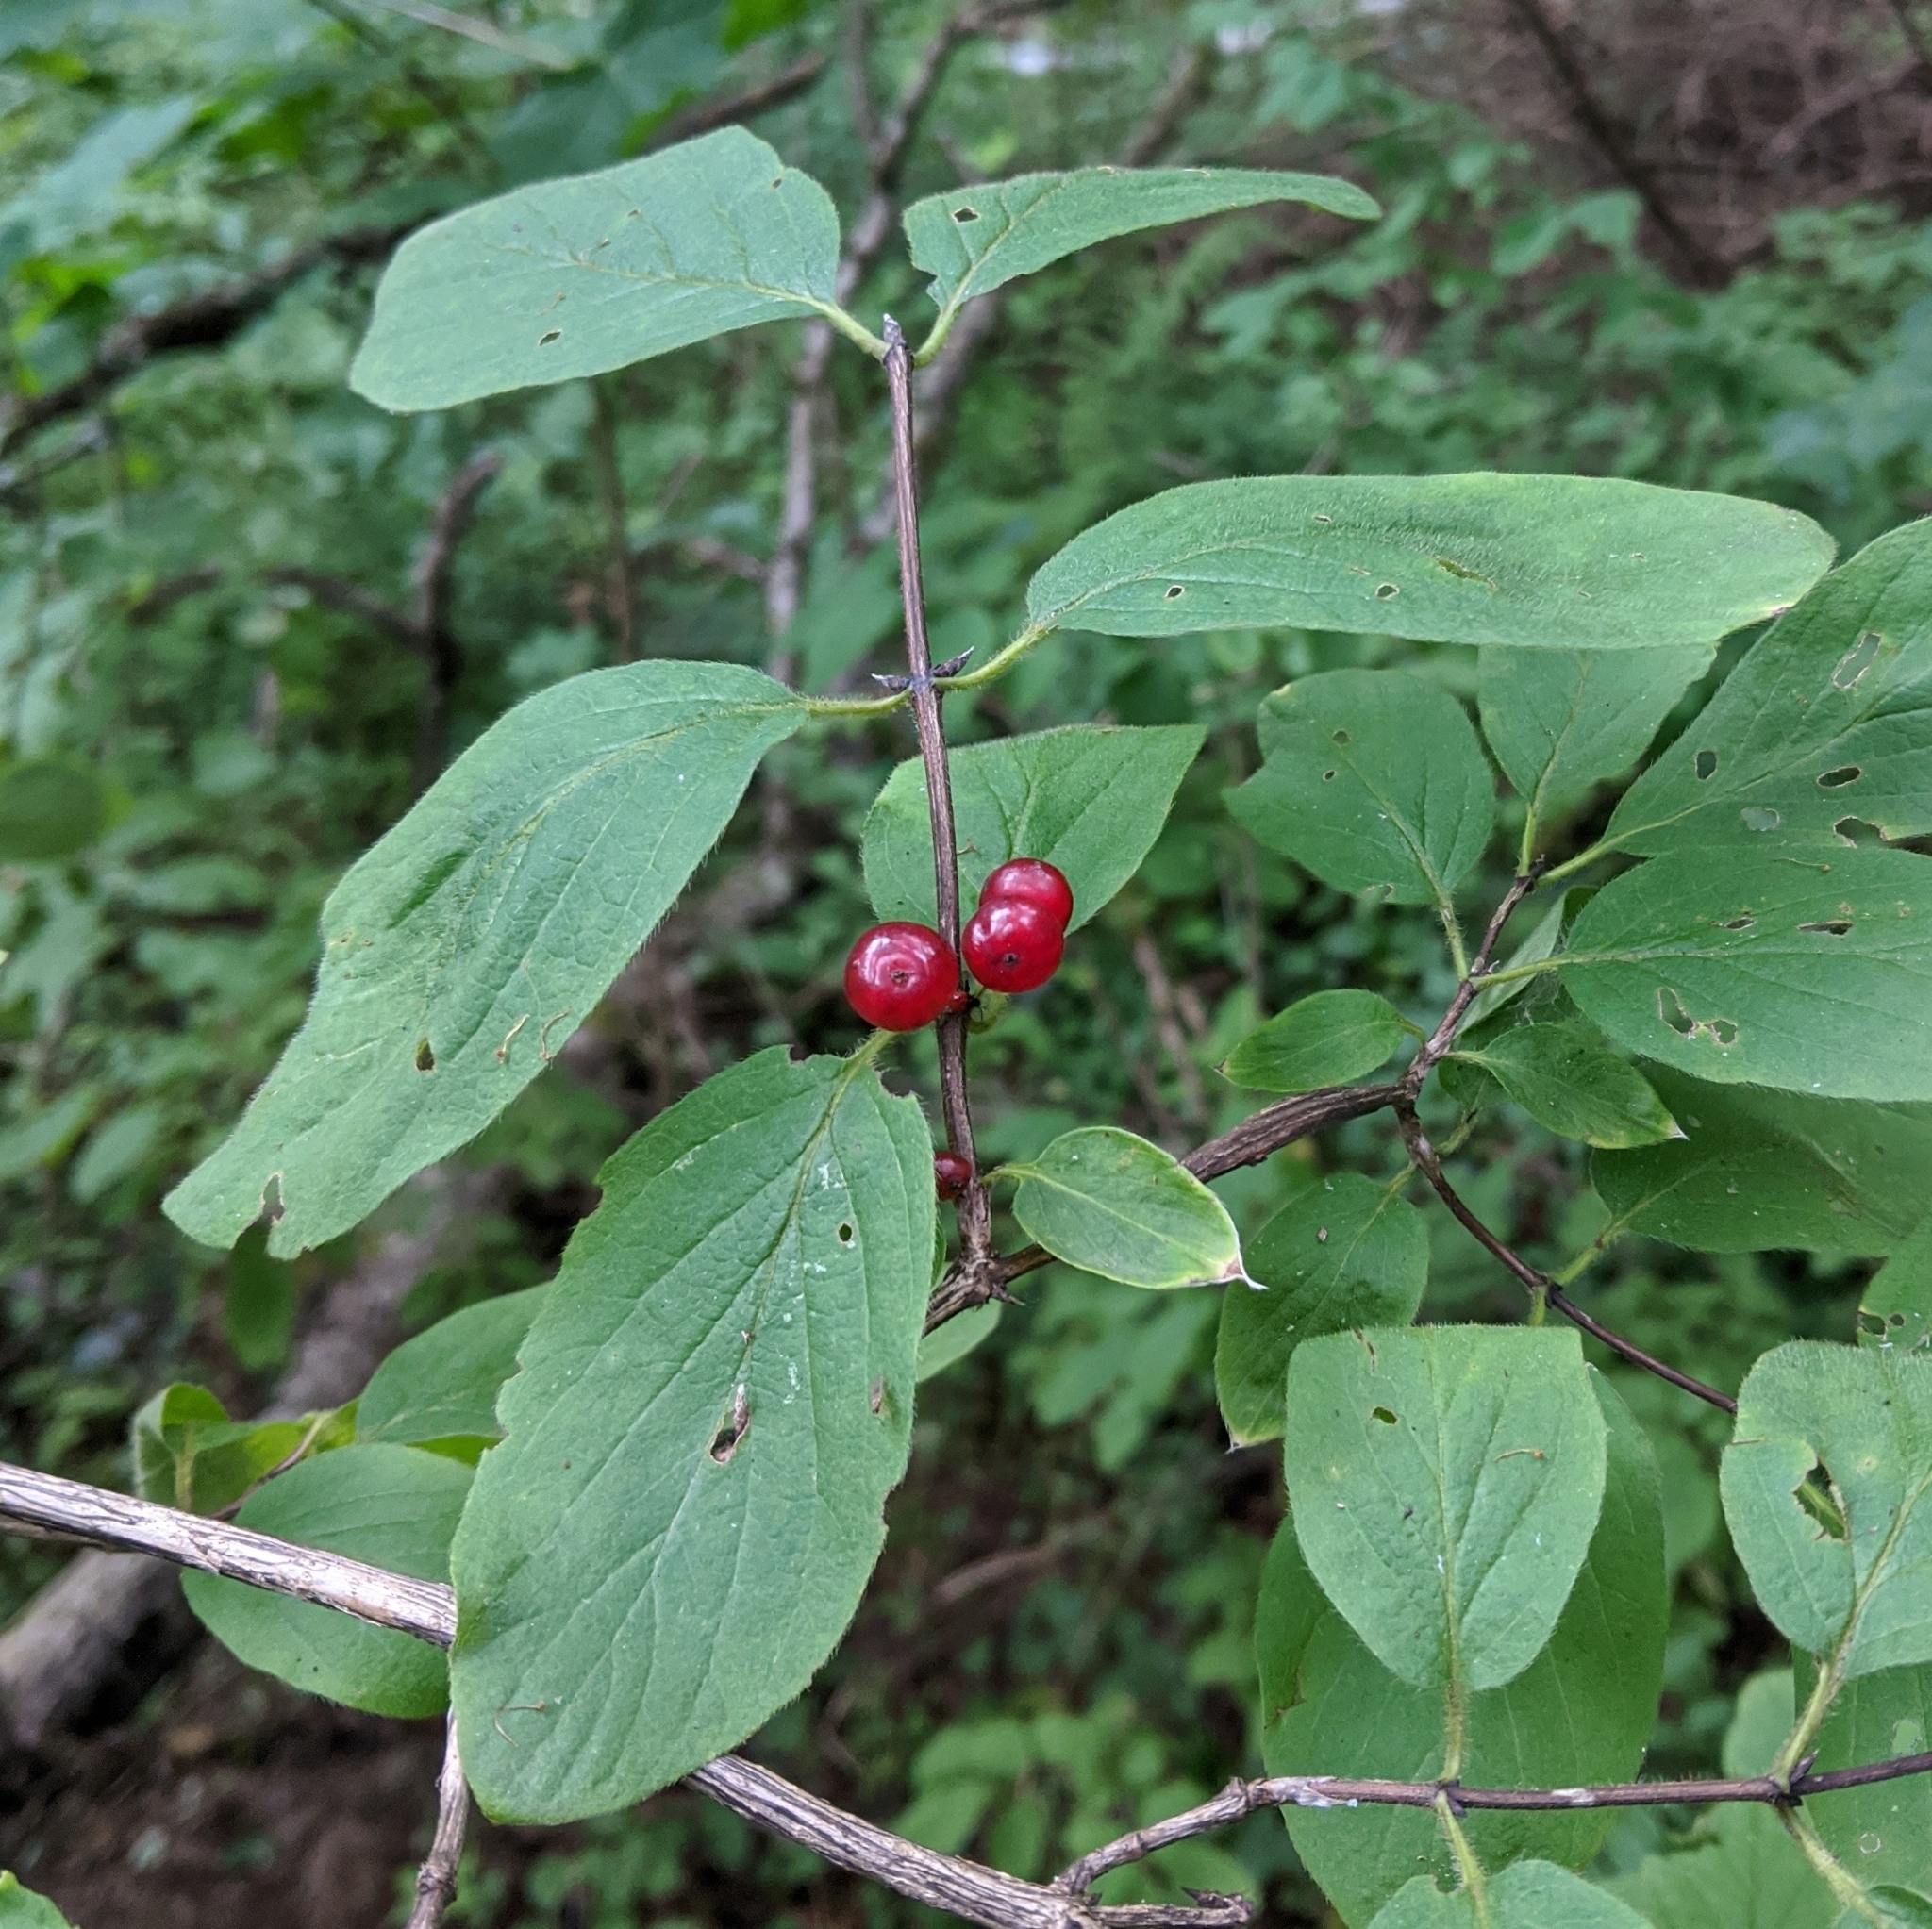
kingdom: Plantae
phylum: Tracheophyta
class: Magnoliopsida
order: Dipsacales
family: Caprifoliaceae
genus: Lonicera
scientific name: Lonicera xylosteum
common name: Fly honeysuckle
